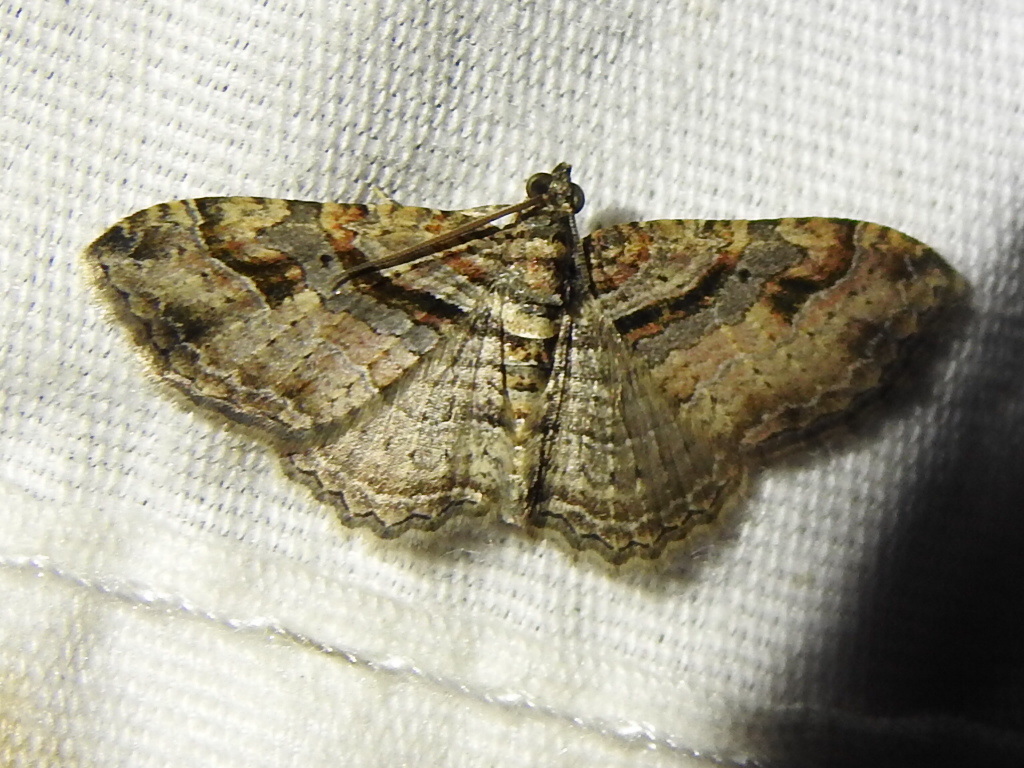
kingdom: Animalia
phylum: Arthropoda
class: Insecta
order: Lepidoptera
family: Geometridae
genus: Costaconvexa
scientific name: Costaconvexa centrostrigaria
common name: Bent-line carpet
